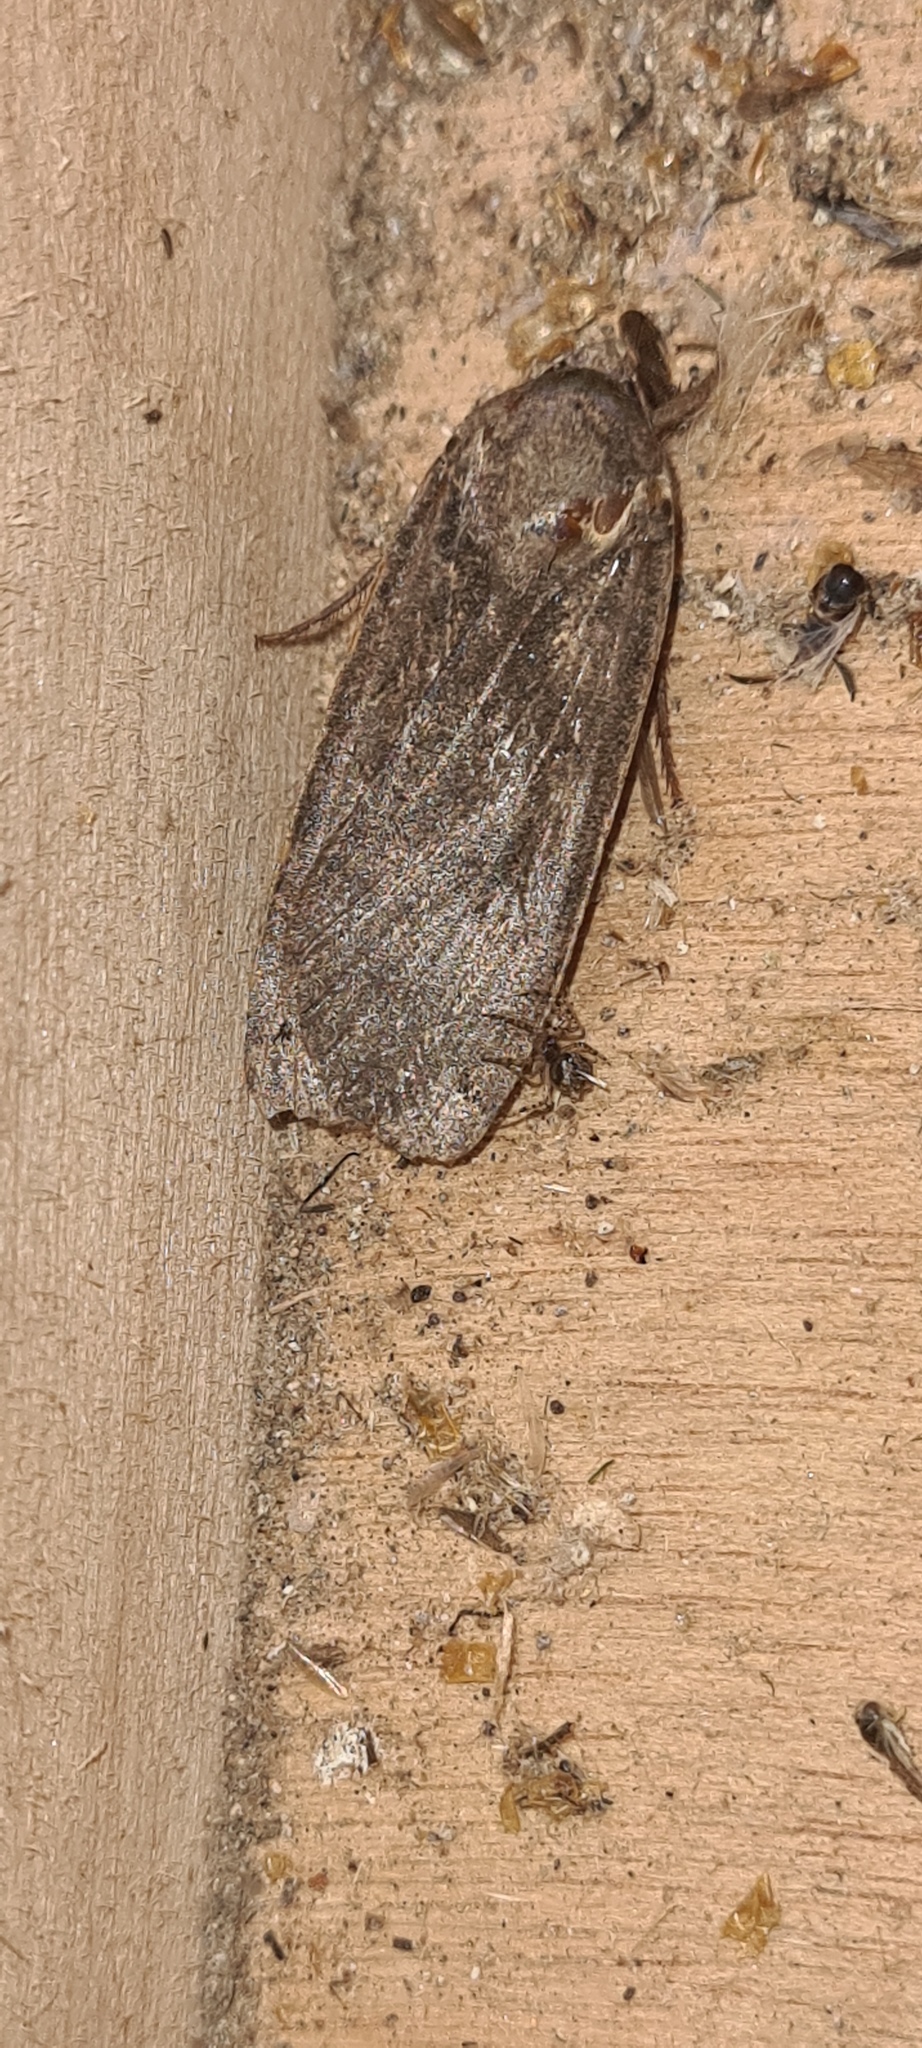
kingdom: Animalia
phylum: Arthropoda
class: Insecta
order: Lepidoptera
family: Noctuidae
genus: Noctua
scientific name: Noctua pronuba
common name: Large yellow underwing
